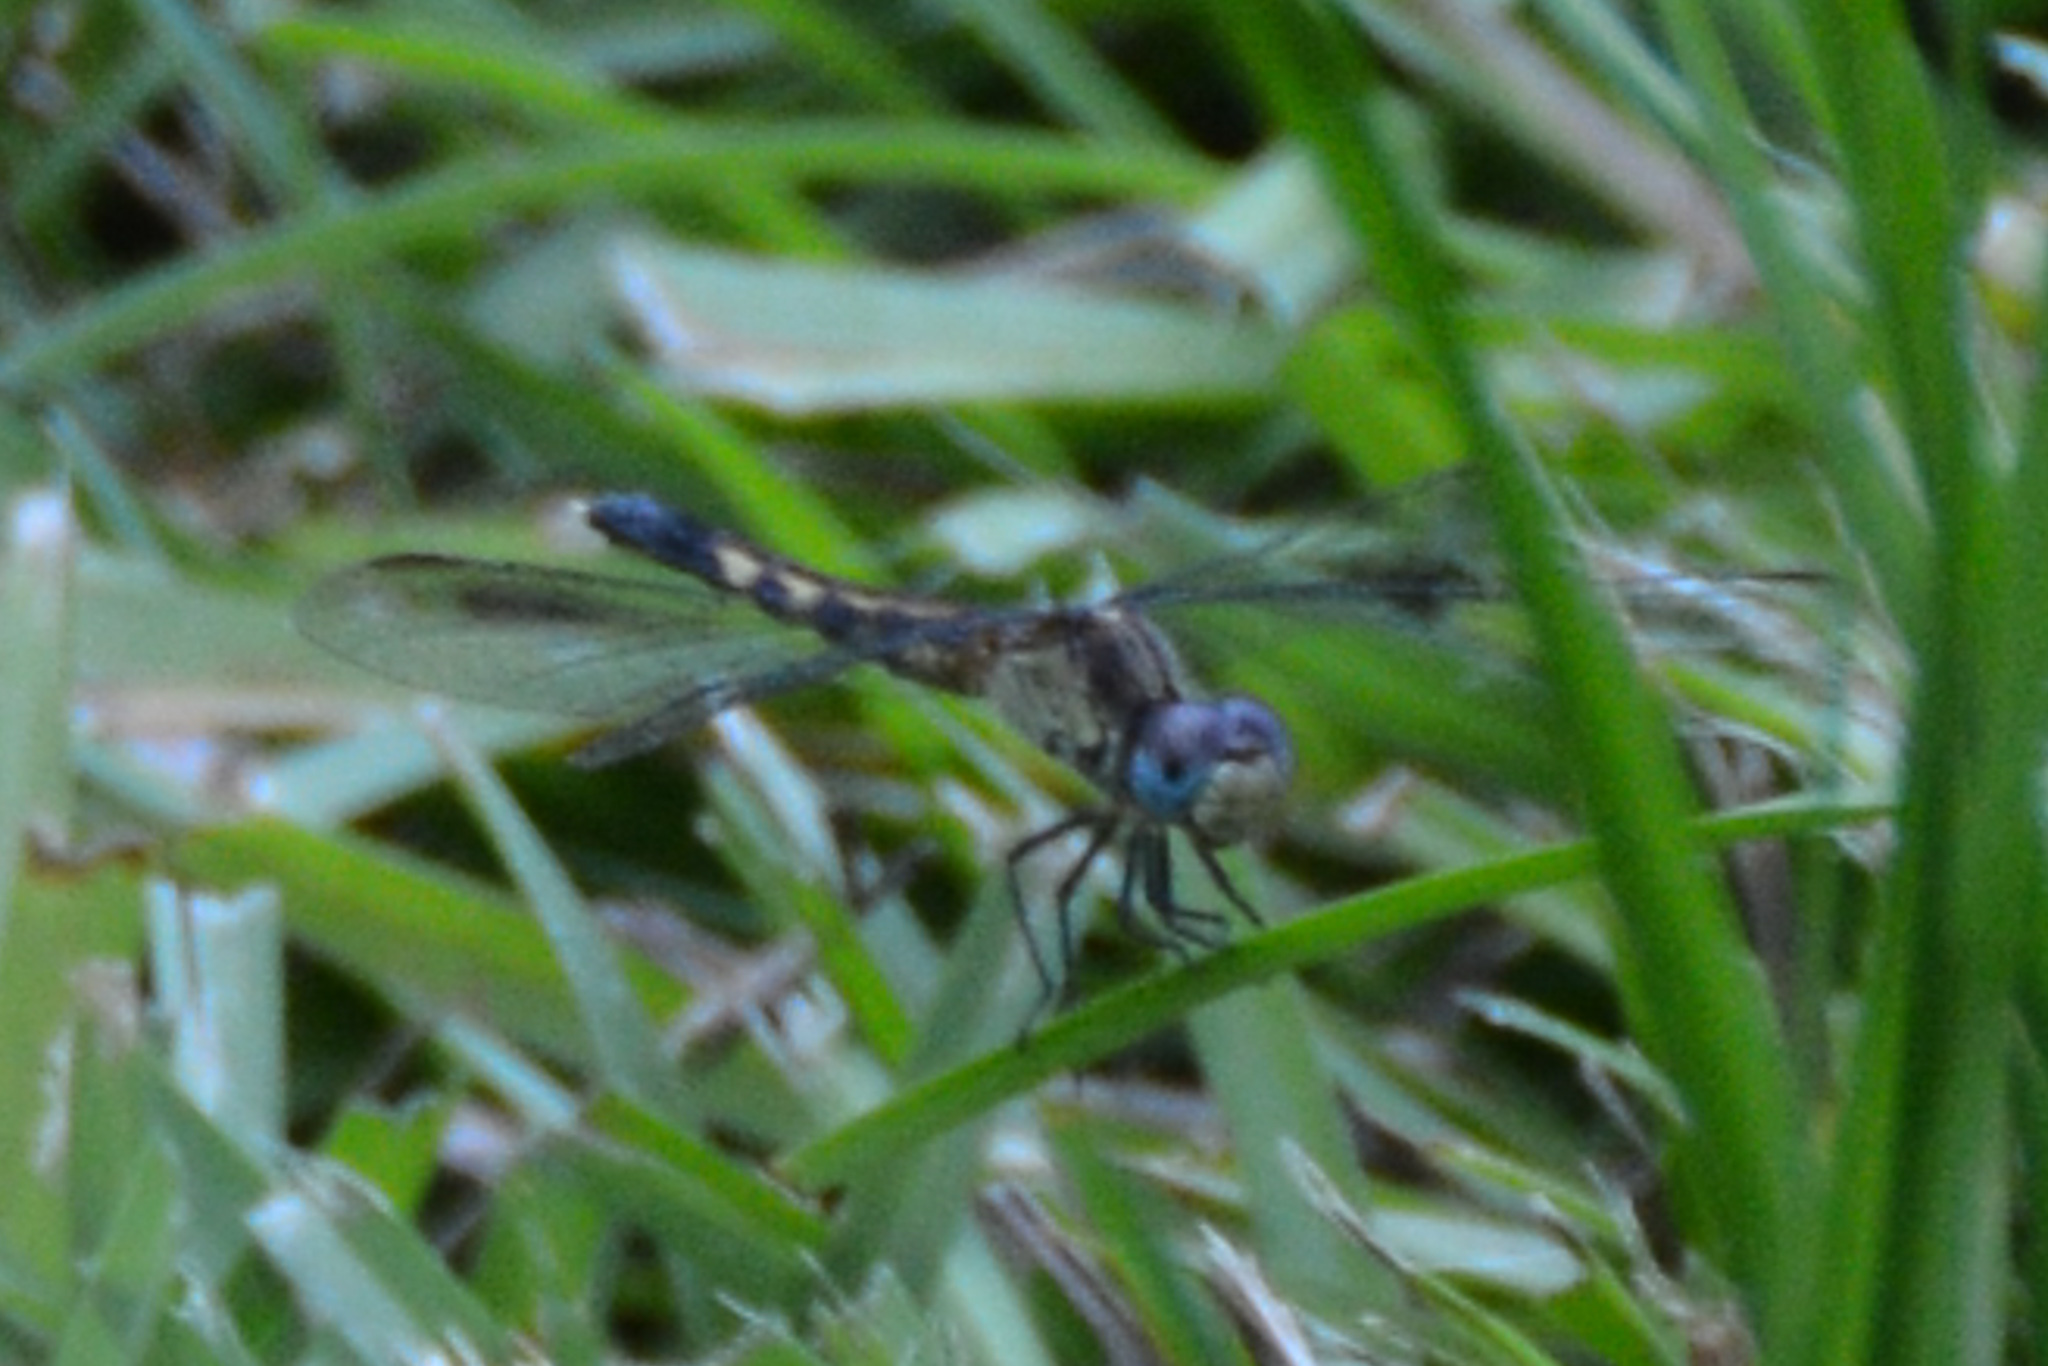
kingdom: Animalia
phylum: Arthropoda
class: Insecta
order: Odonata
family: Libellulidae
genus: Erythrodiplax
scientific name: Erythrodiplax minuscula
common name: Little blue dragonlet
